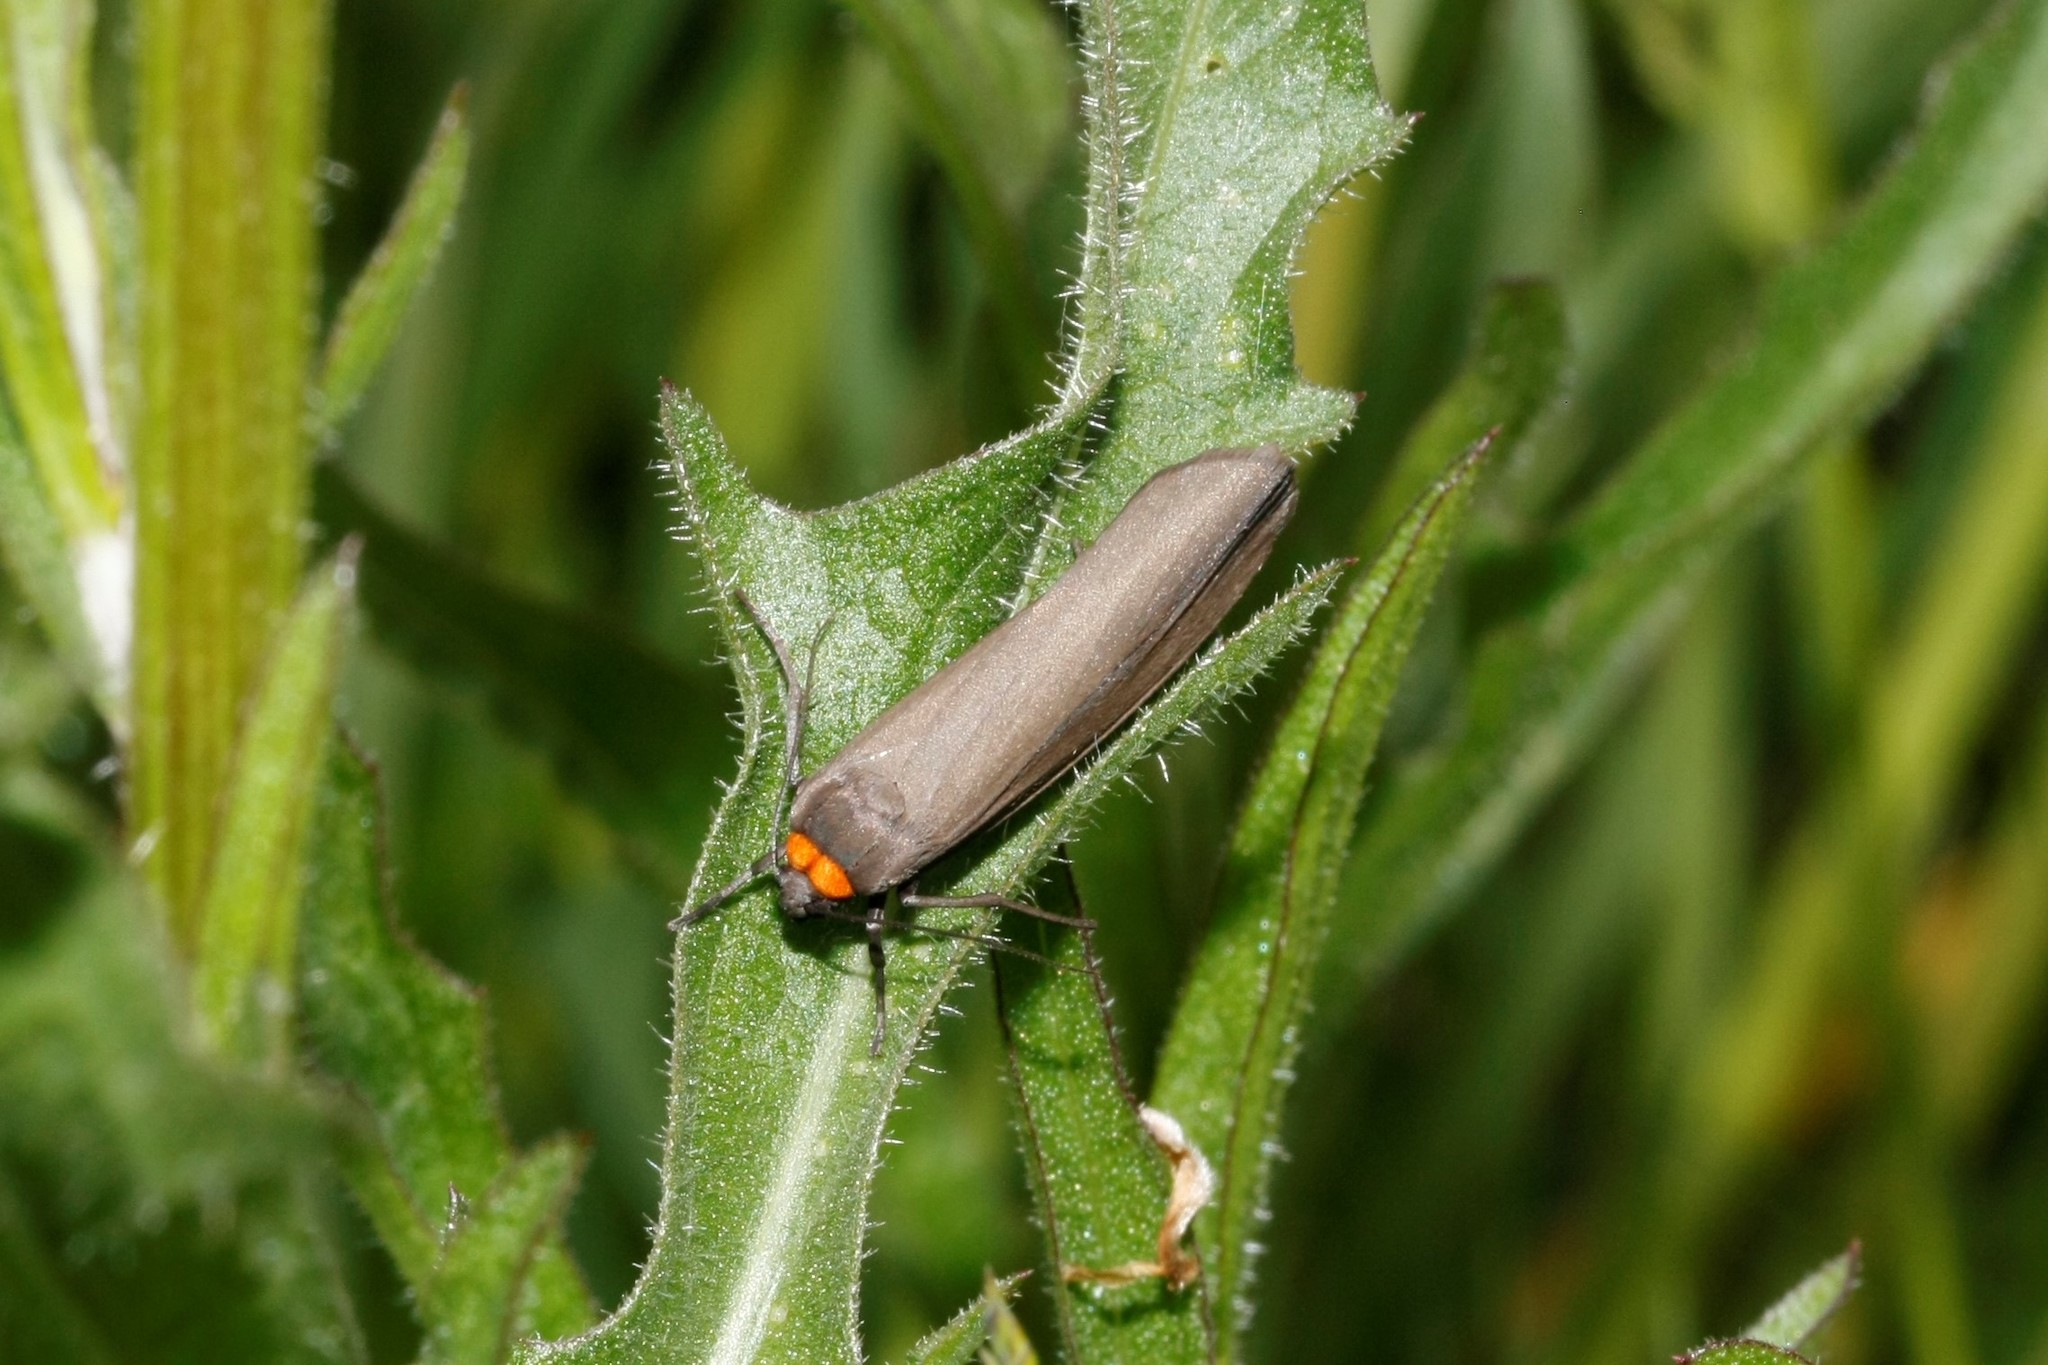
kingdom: Animalia
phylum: Arthropoda
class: Insecta
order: Lepidoptera
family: Erebidae
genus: Atolmis
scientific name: Atolmis rubricollis
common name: Red-necked footman
